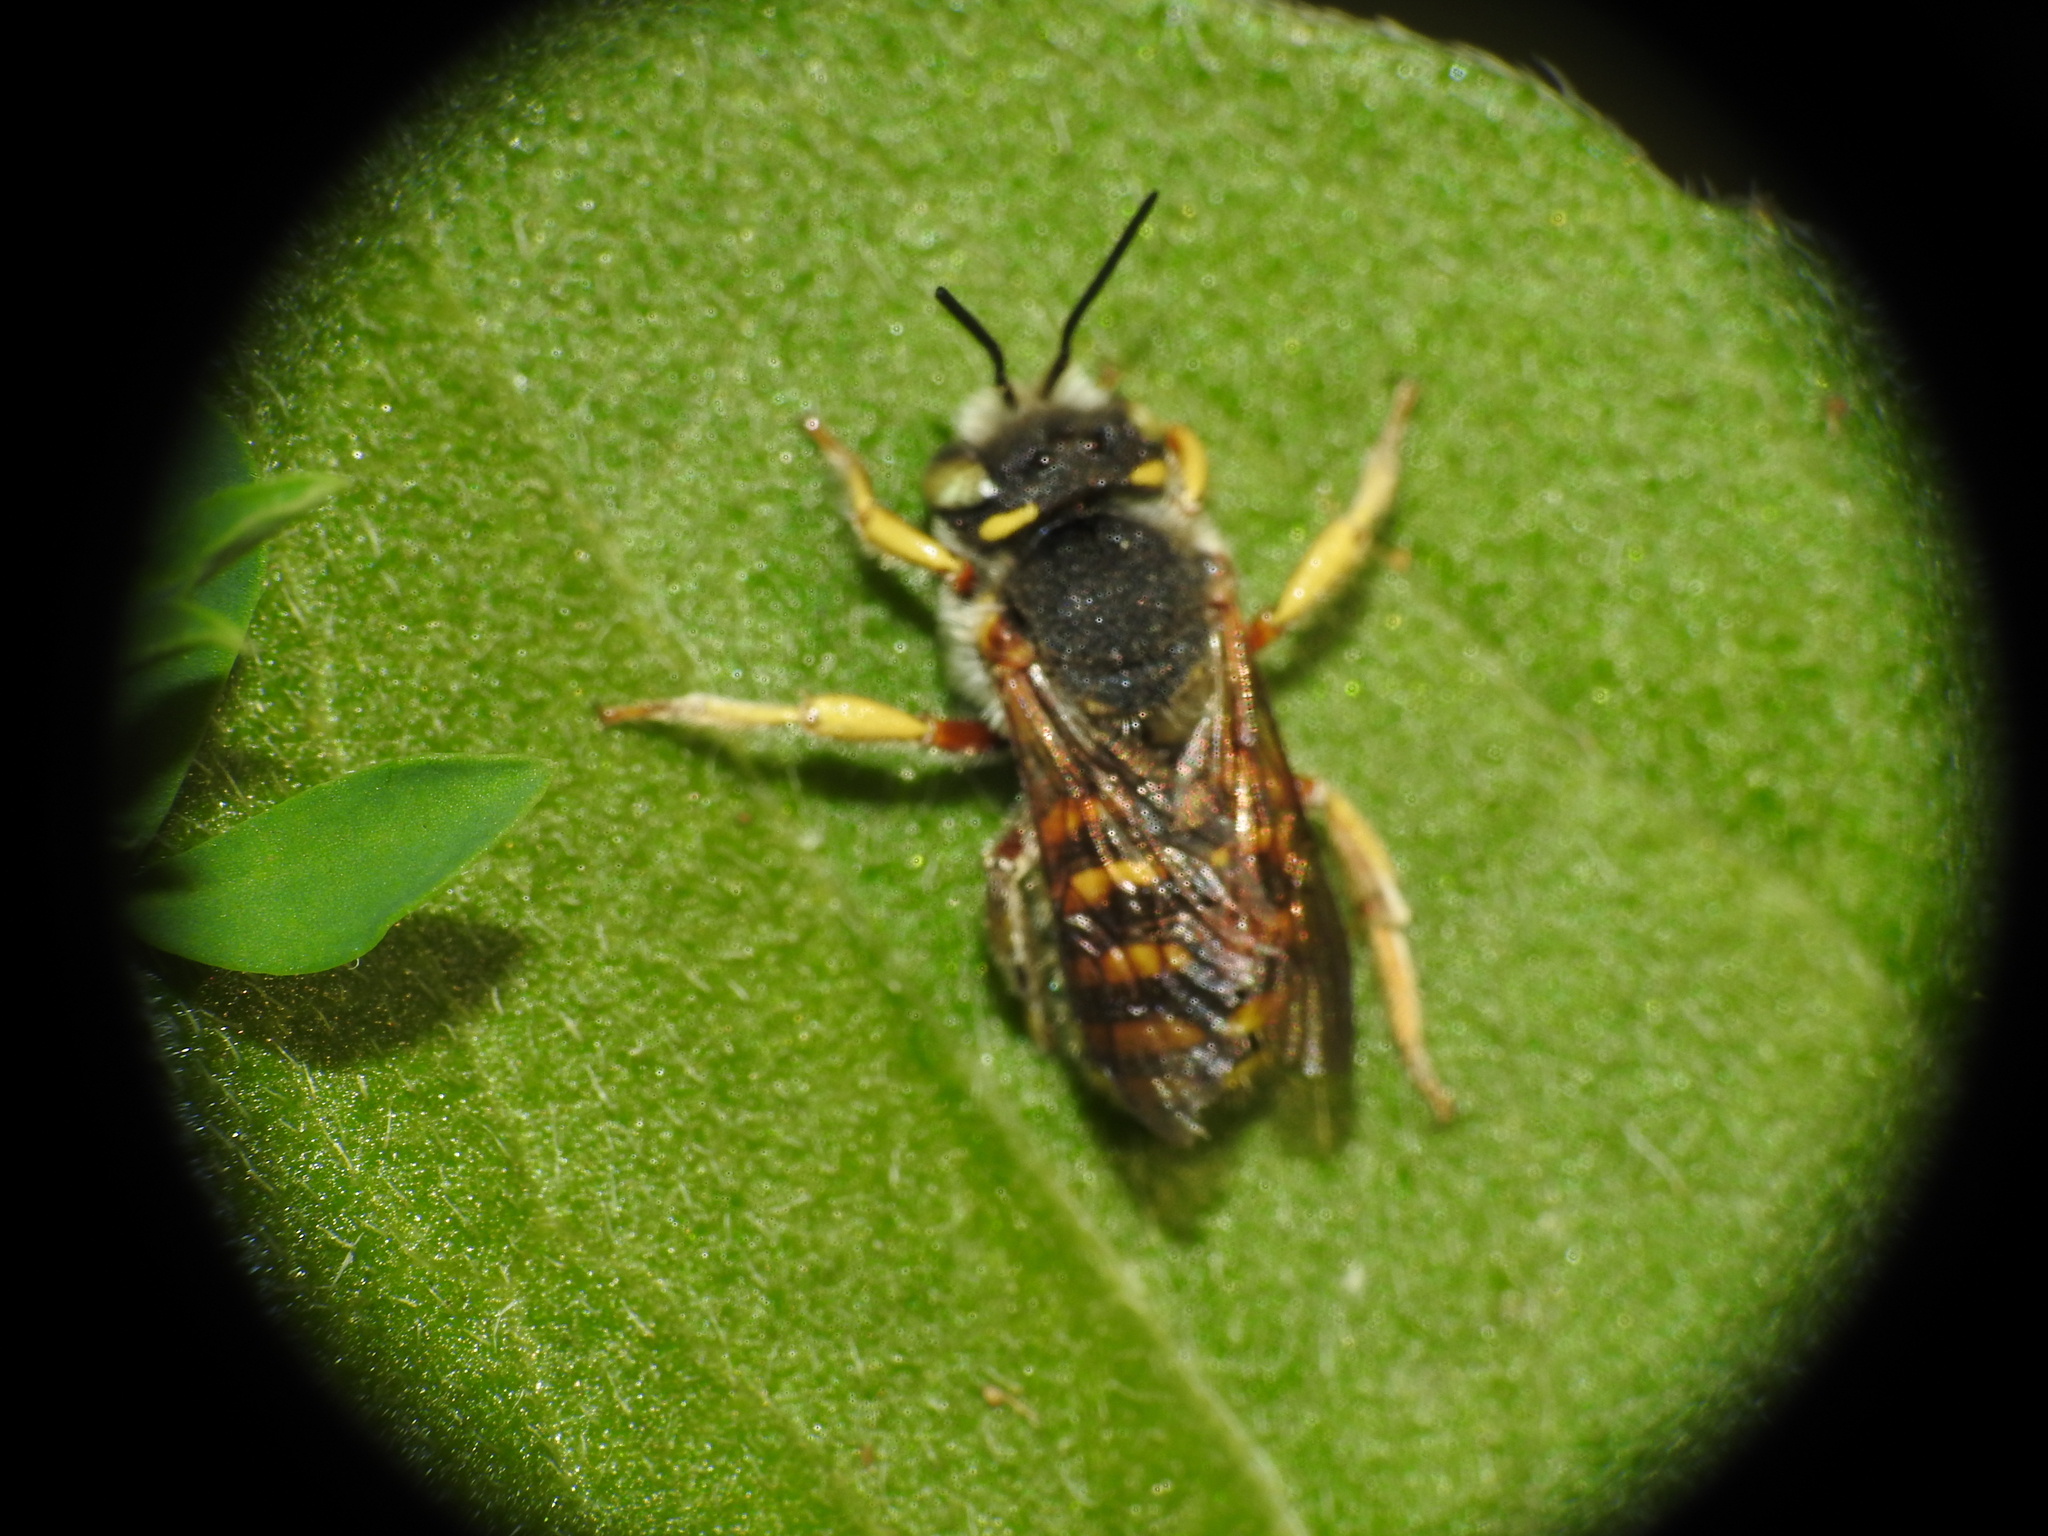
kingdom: Animalia
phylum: Arthropoda
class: Insecta
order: Hymenoptera
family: Megachilidae
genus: Anthidium
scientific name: Anthidium oblongatum
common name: Oblong wool carder bee
